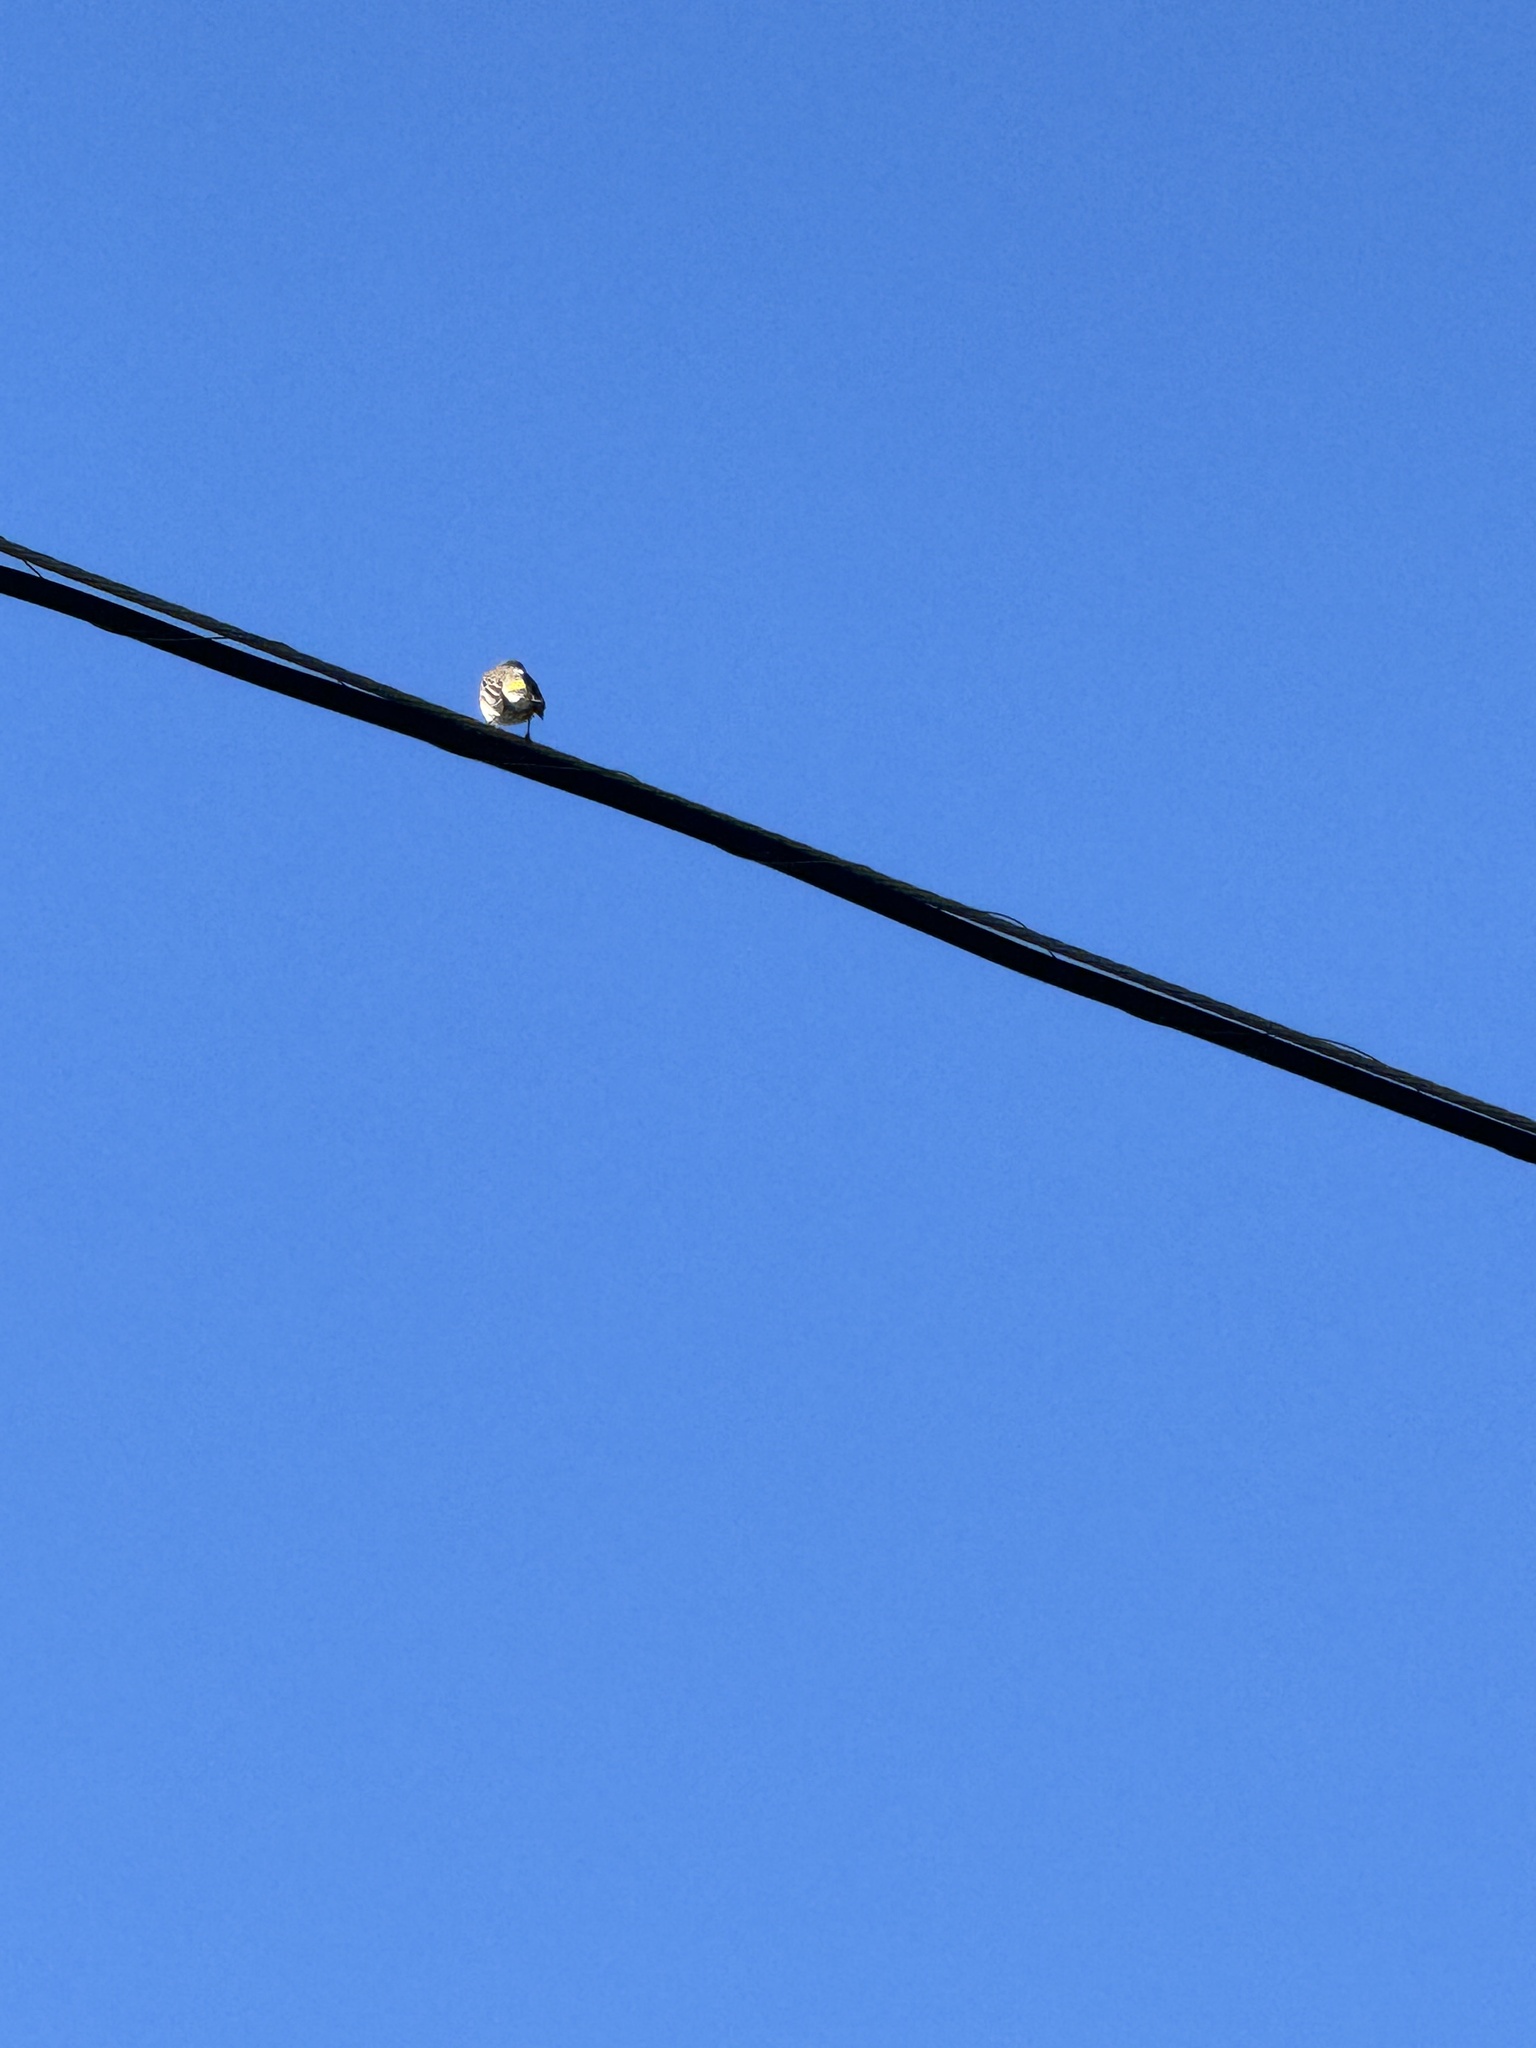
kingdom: Animalia
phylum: Chordata
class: Aves
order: Passeriformes
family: Parulidae
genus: Setophaga
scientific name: Setophaga coronata
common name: Myrtle warbler
